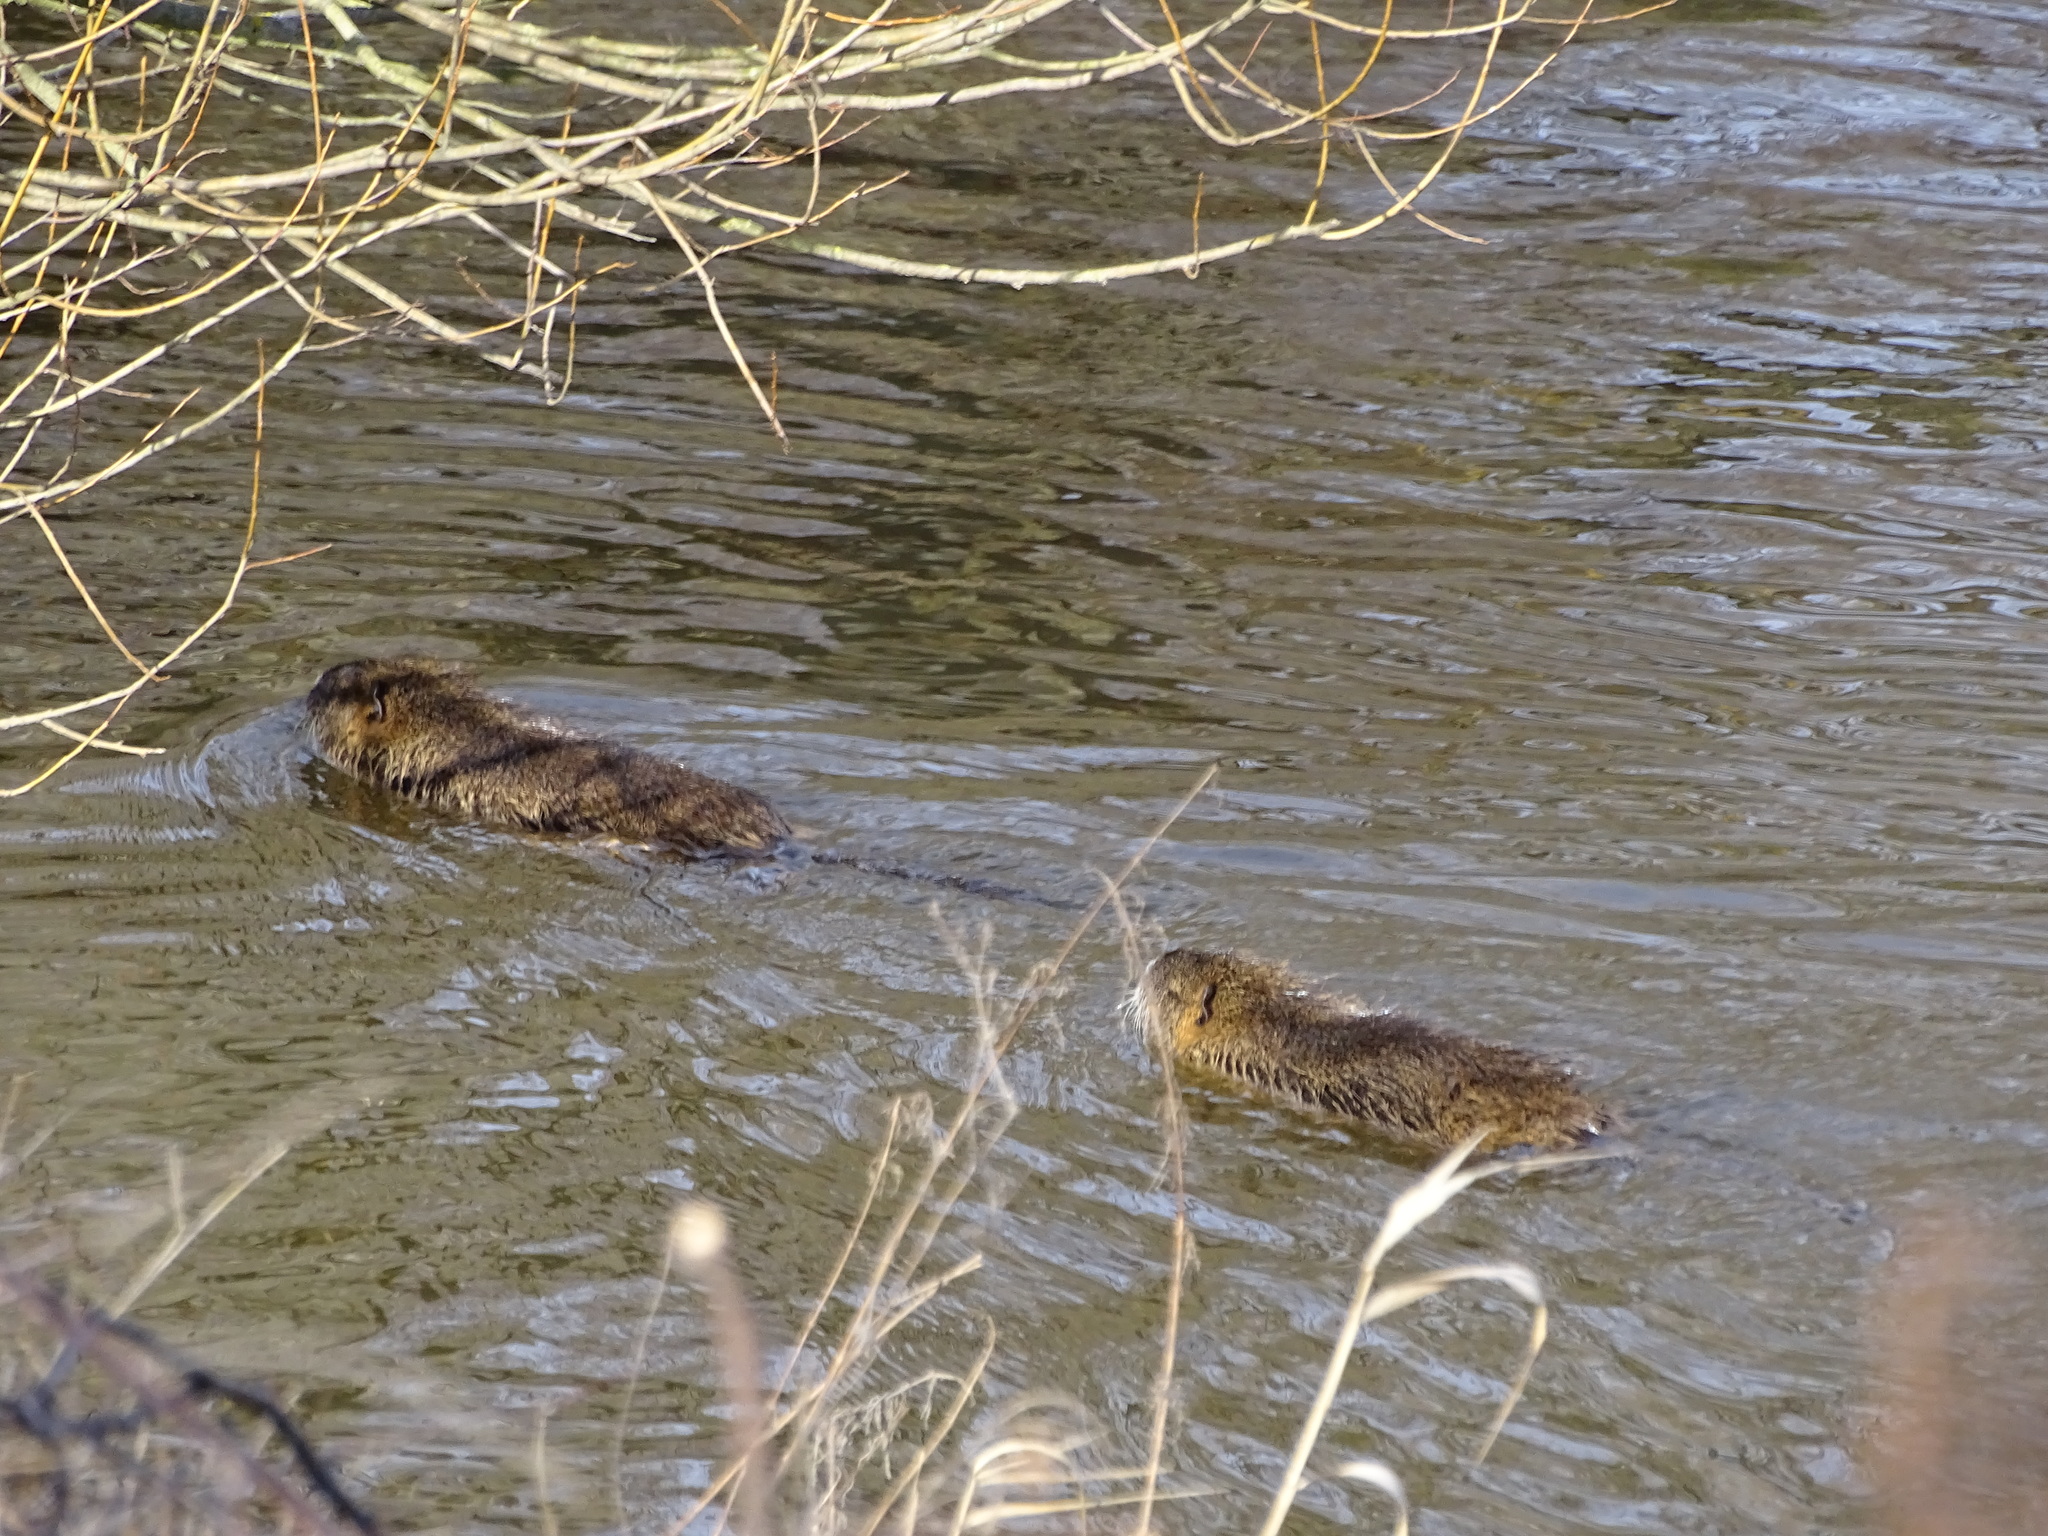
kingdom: Animalia
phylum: Chordata
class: Mammalia
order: Rodentia
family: Myocastoridae
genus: Myocastor
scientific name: Myocastor coypus
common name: Coypu
